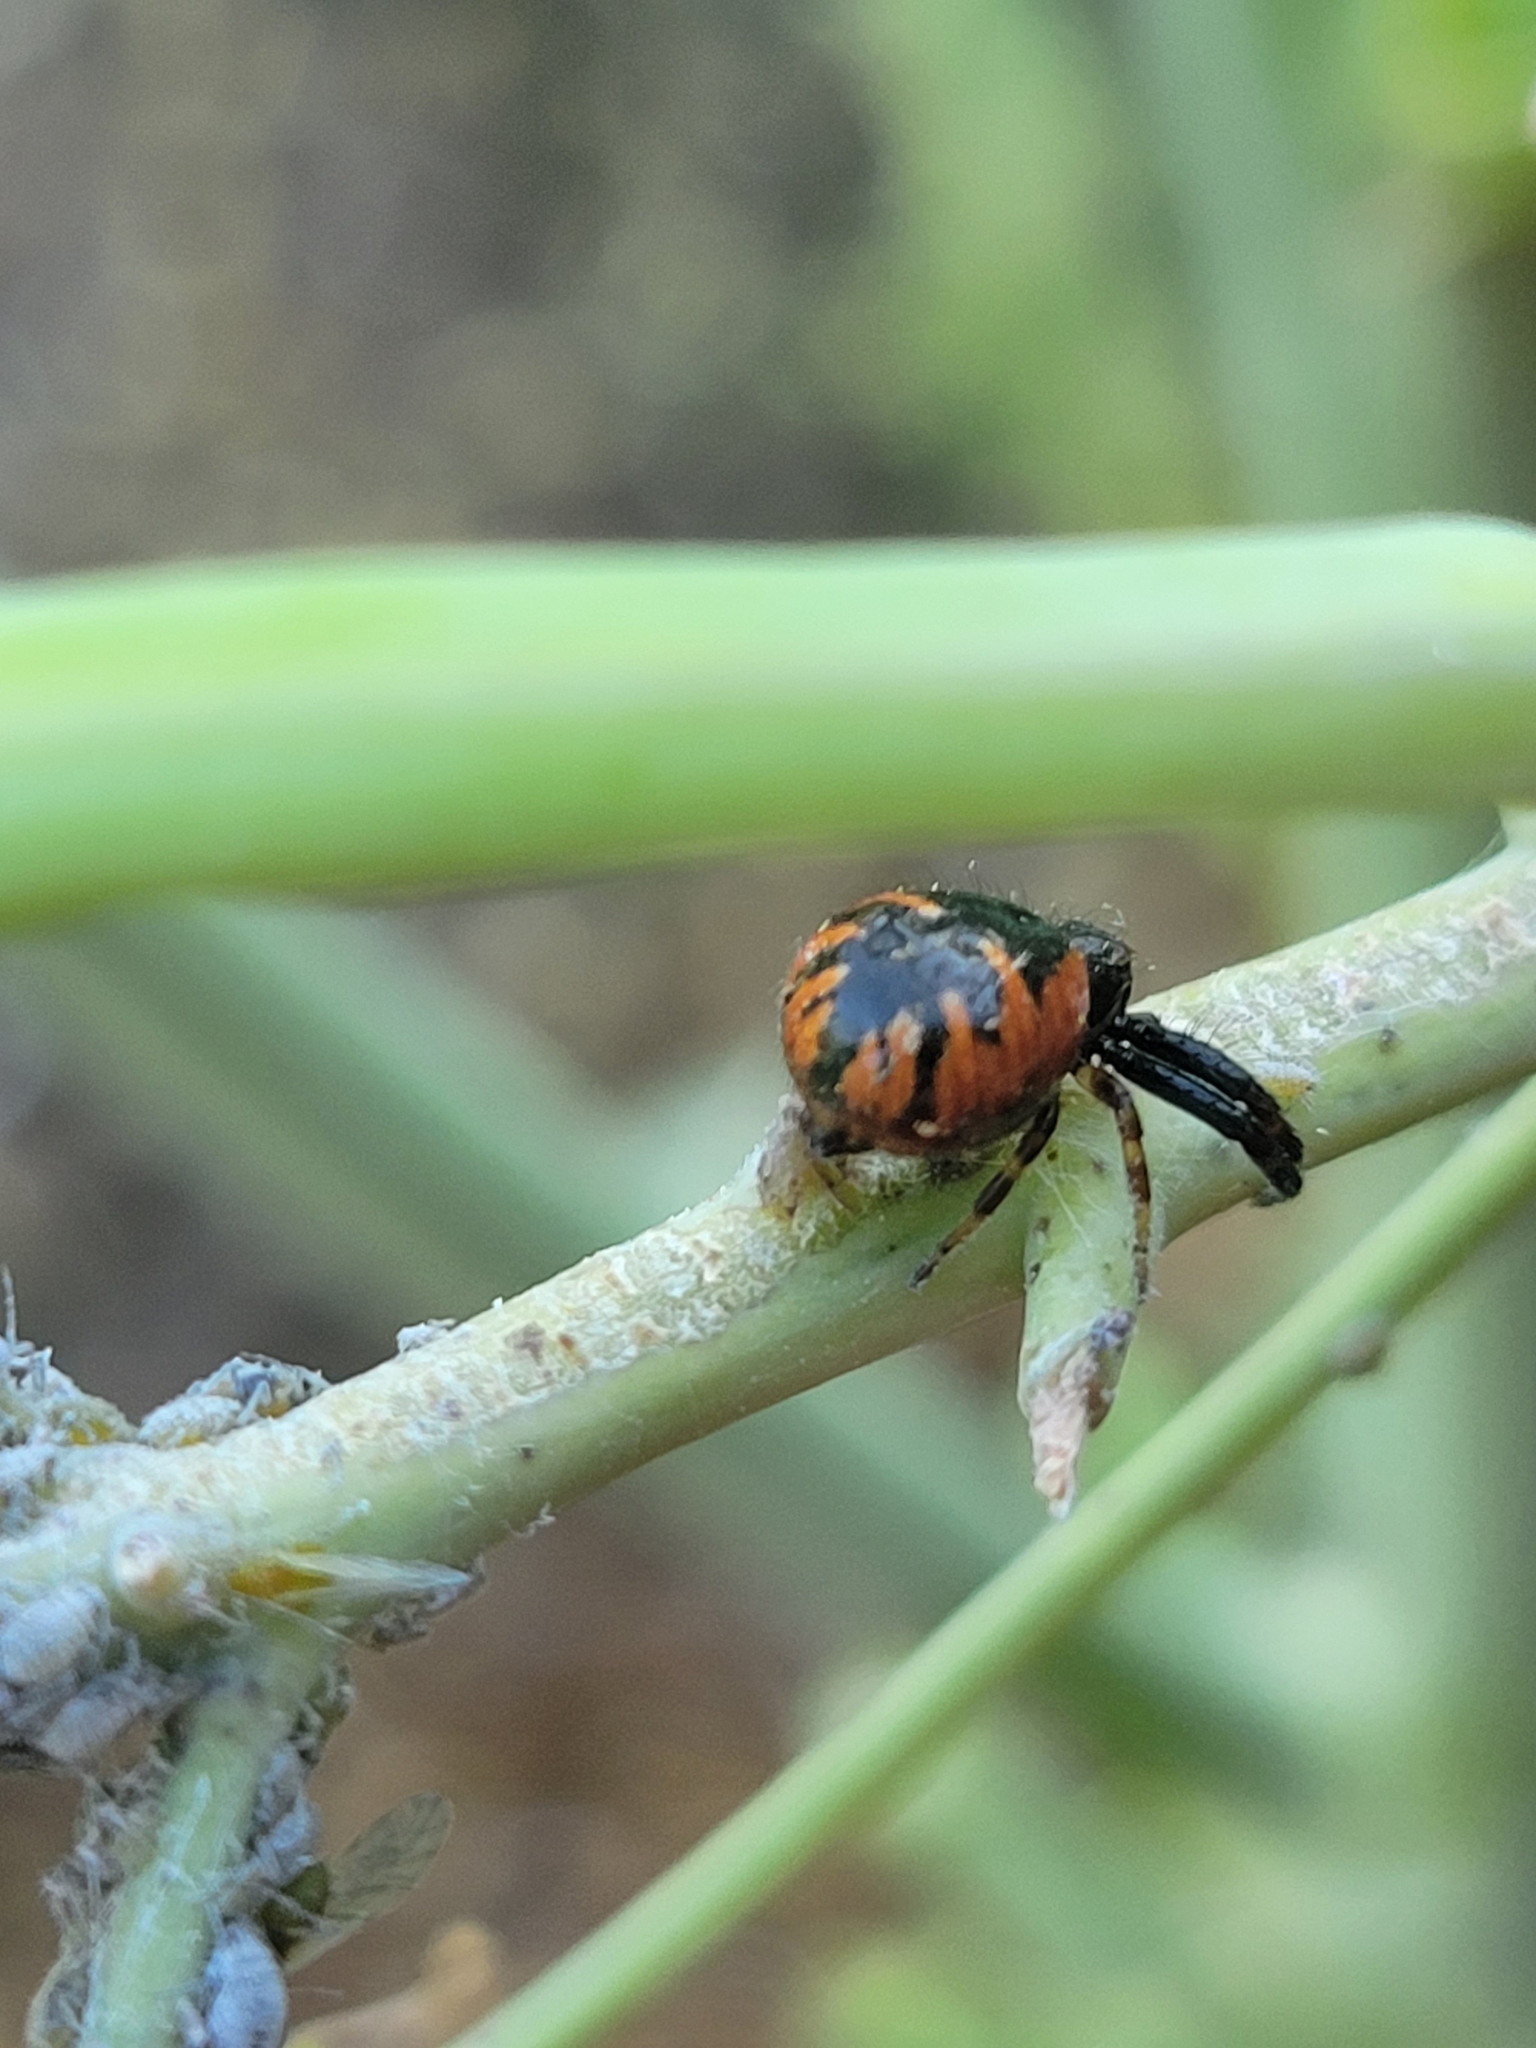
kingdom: Animalia
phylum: Arthropoda
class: Arachnida
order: Araneae
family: Thomisidae
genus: Synema
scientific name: Synema globosum
